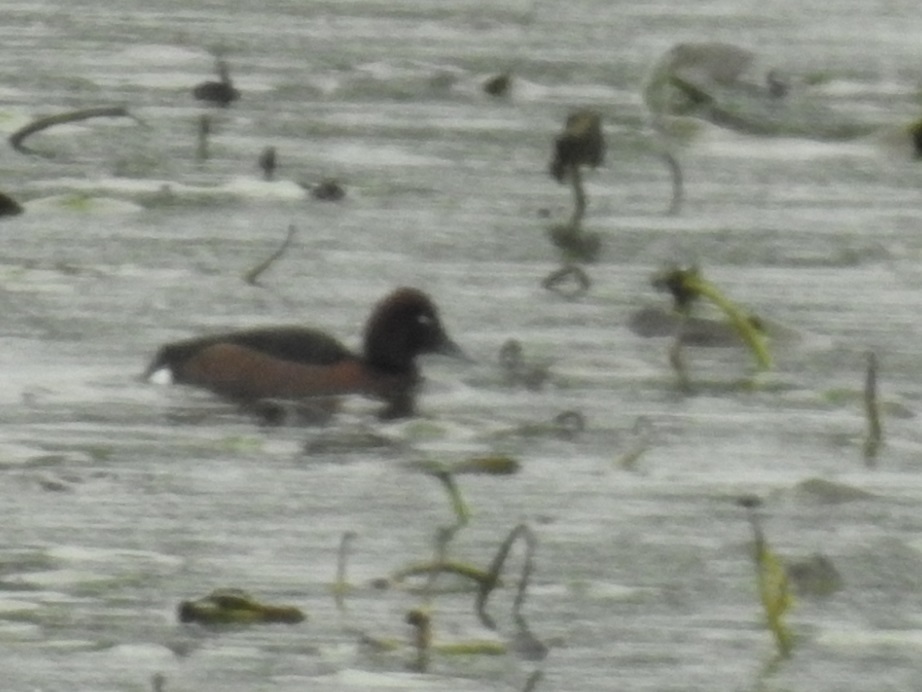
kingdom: Animalia
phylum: Chordata
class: Aves
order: Anseriformes
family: Anatidae
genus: Aythya
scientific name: Aythya nyroca
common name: Ferruginous duck
